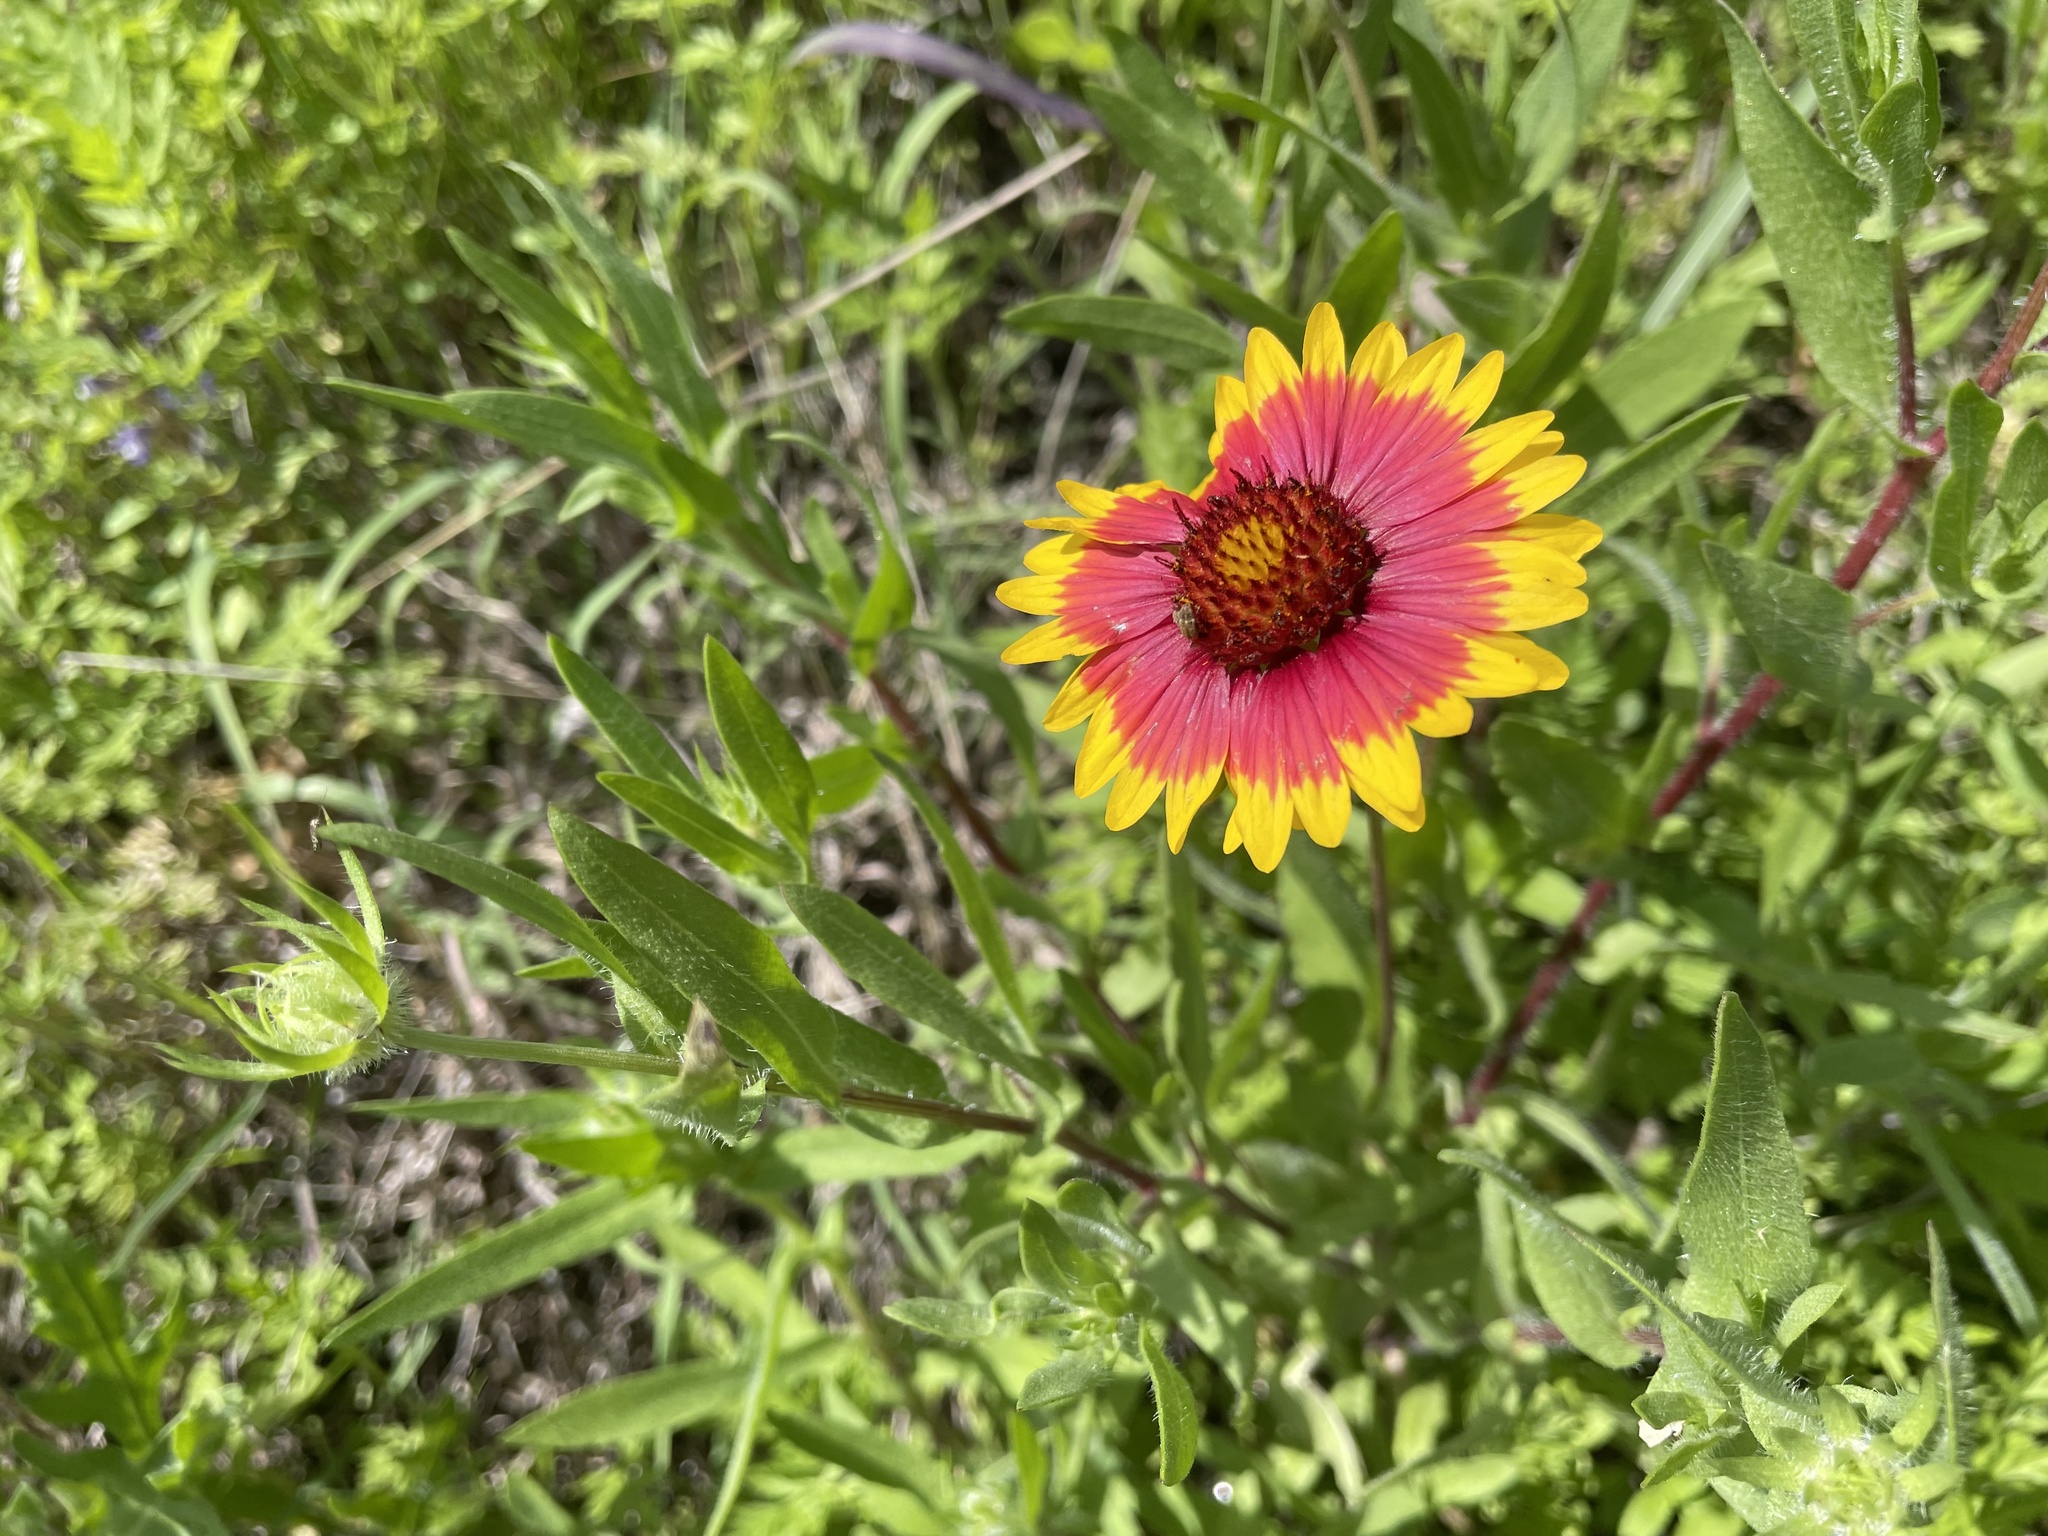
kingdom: Plantae
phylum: Tracheophyta
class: Magnoliopsida
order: Asterales
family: Asteraceae
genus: Gaillardia
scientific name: Gaillardia pulchella
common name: Firewheel
